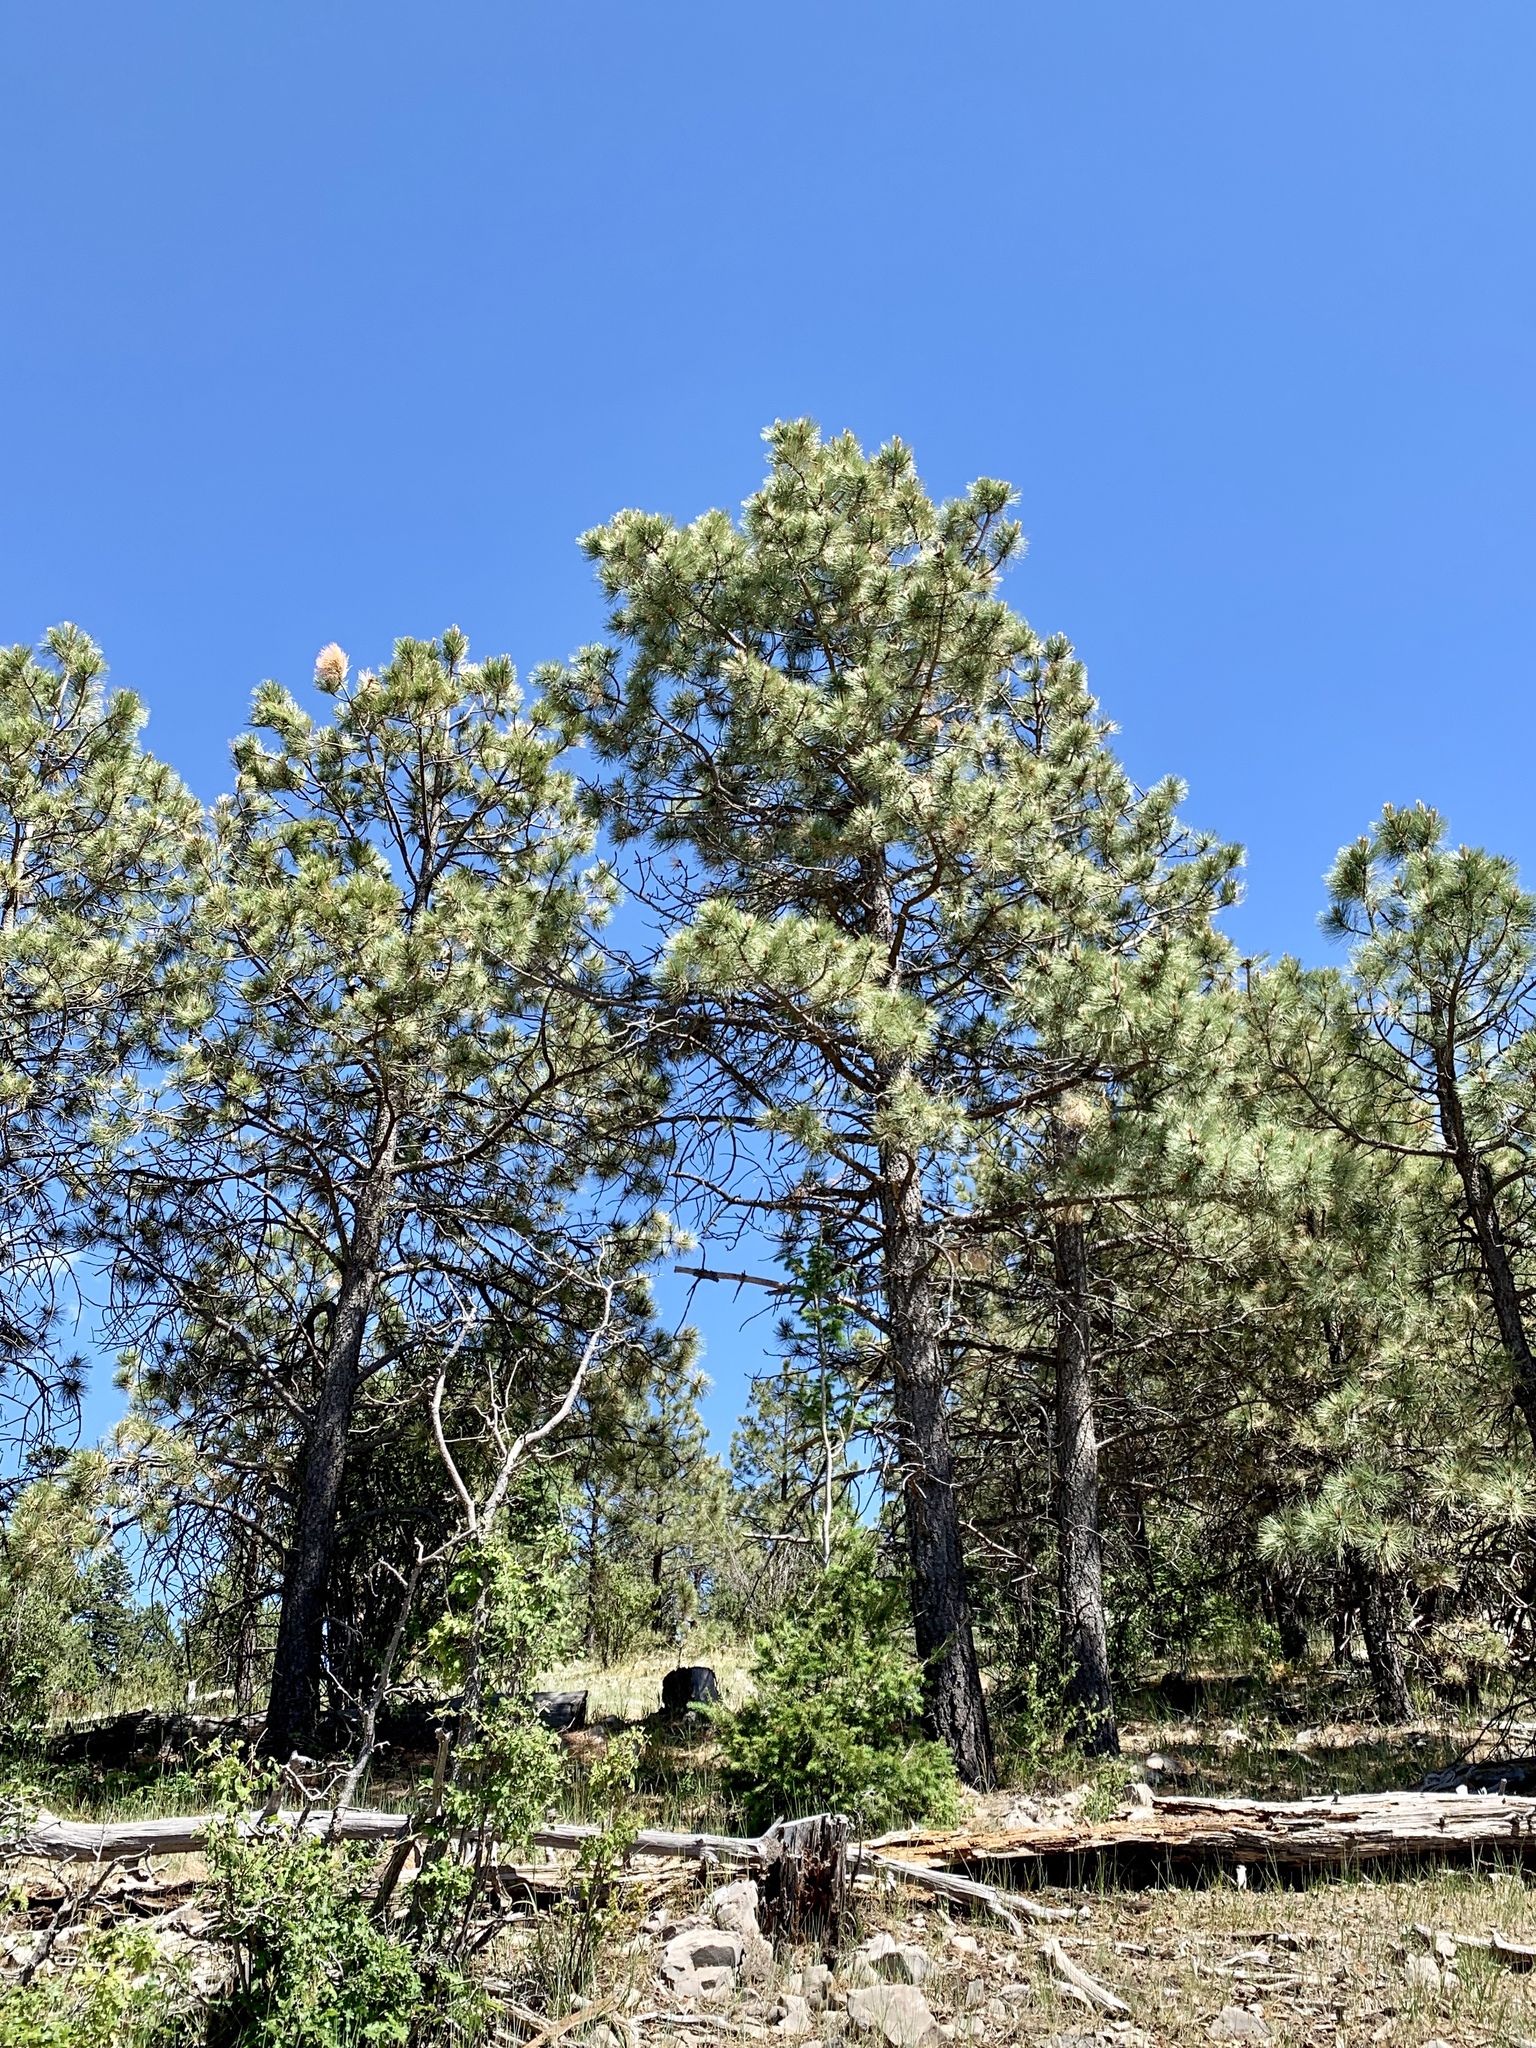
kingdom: Plantae
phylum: Tracheophyta
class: Pinopsida
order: Pinales
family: Pinaceae
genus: Pinus
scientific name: Pinus ponderosa
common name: Western yellow-pine
